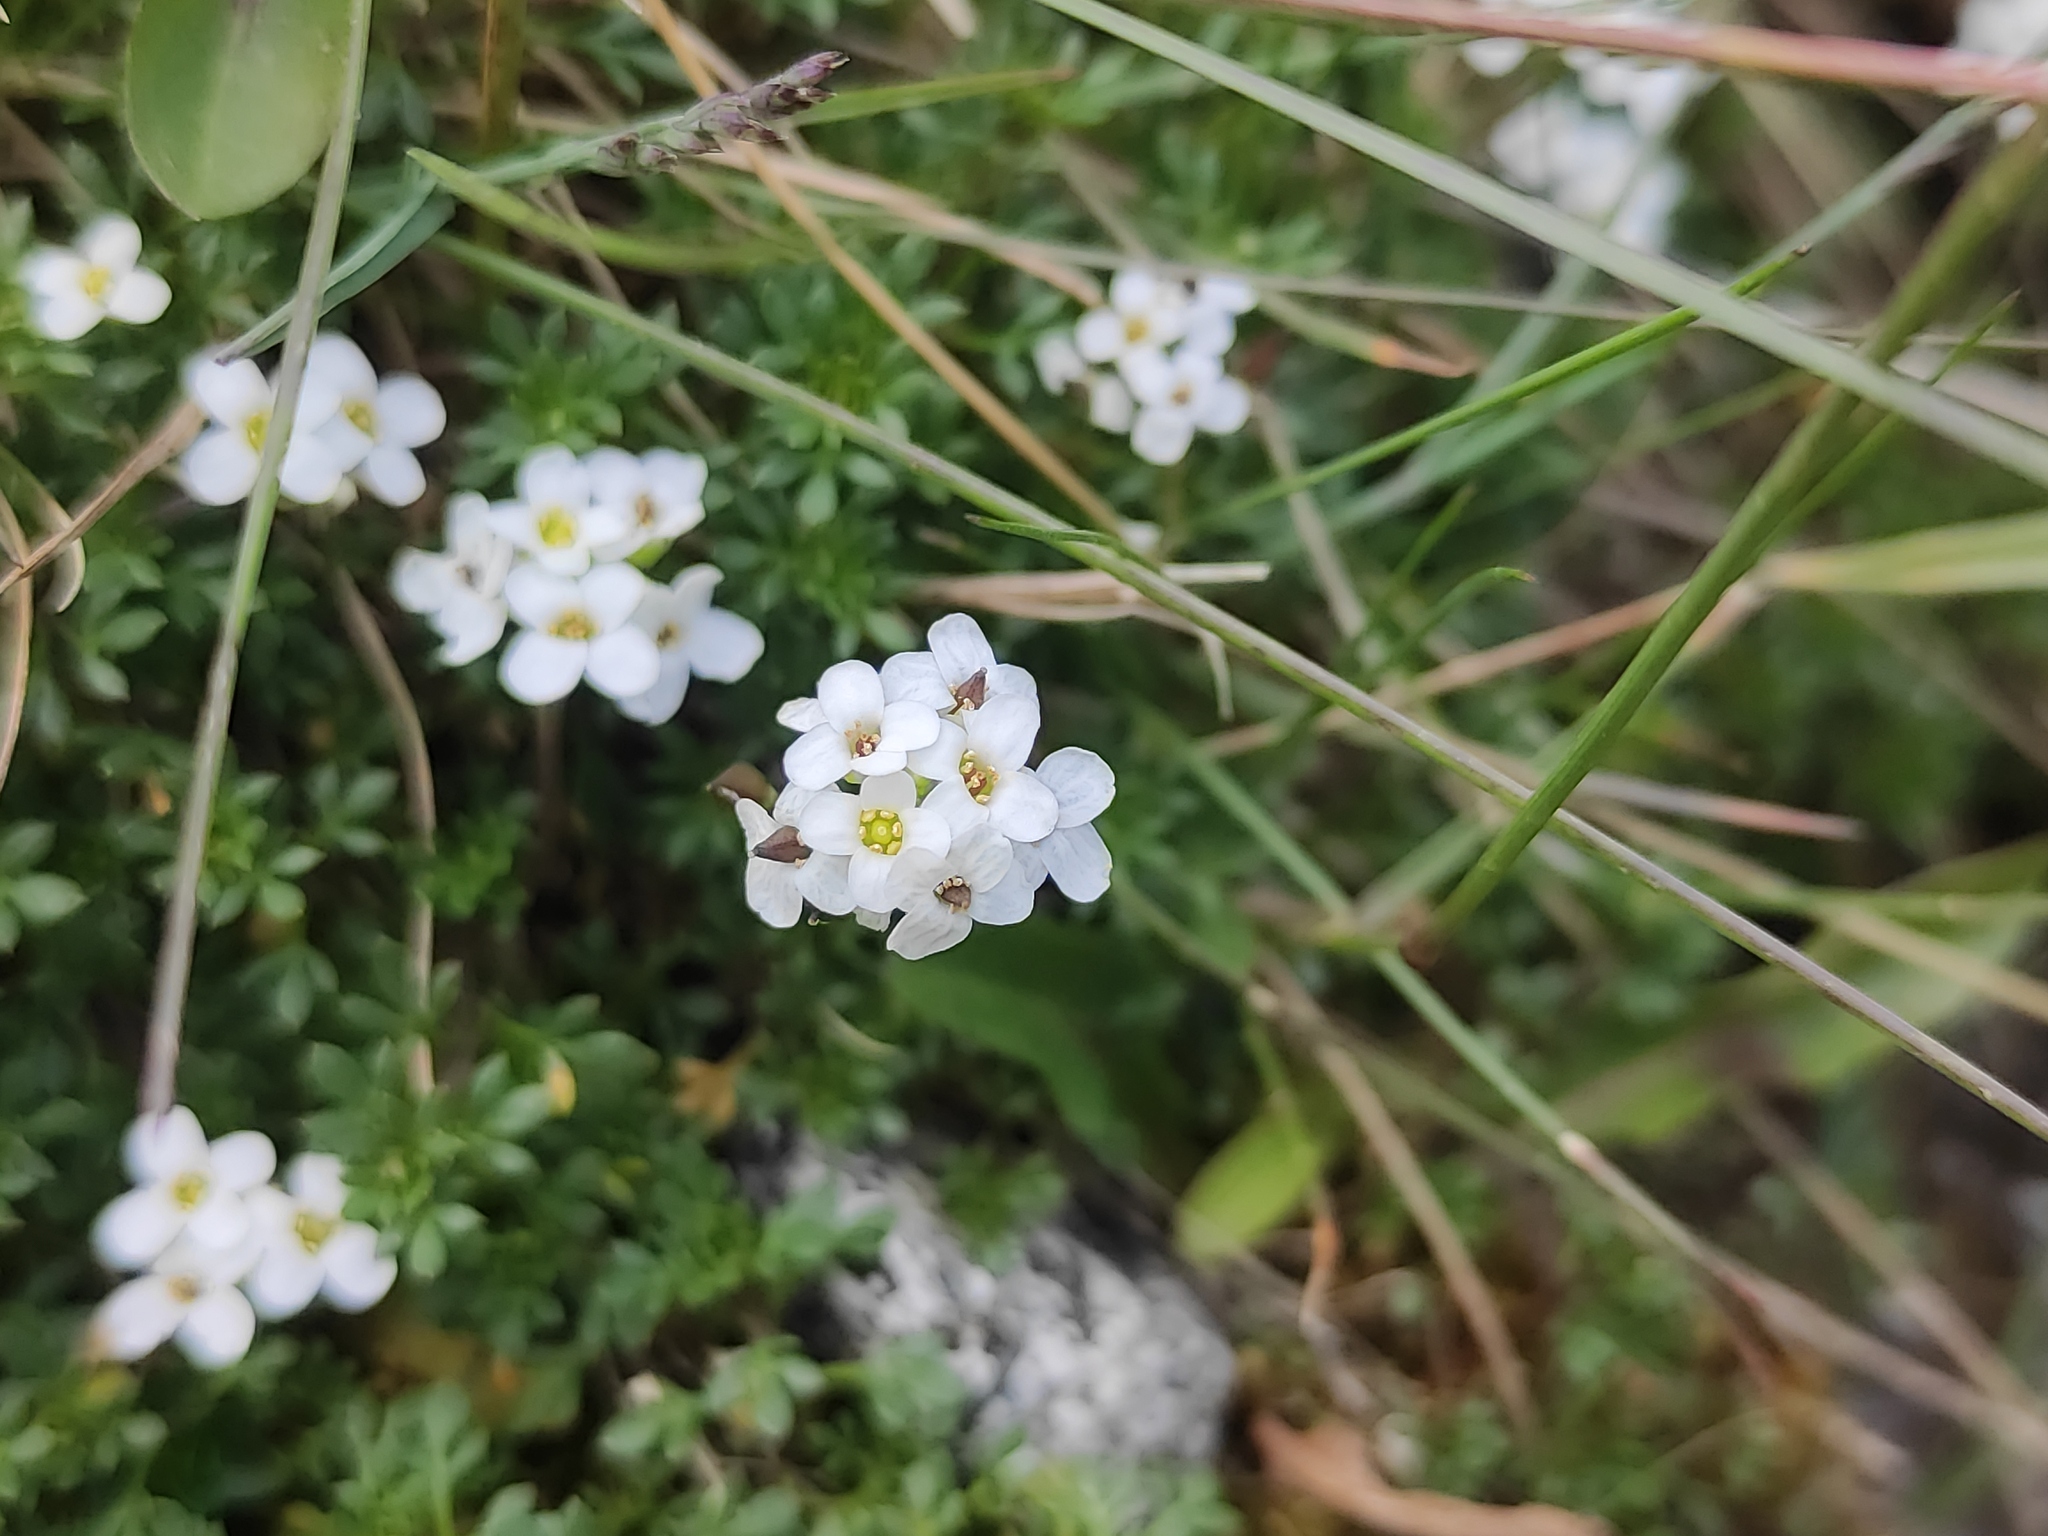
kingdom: Plantae
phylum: Tracheophyta
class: Magnoliopsida
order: Brassicales
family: Brassicaceae
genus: Hornungia
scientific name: Hornungia alpina
